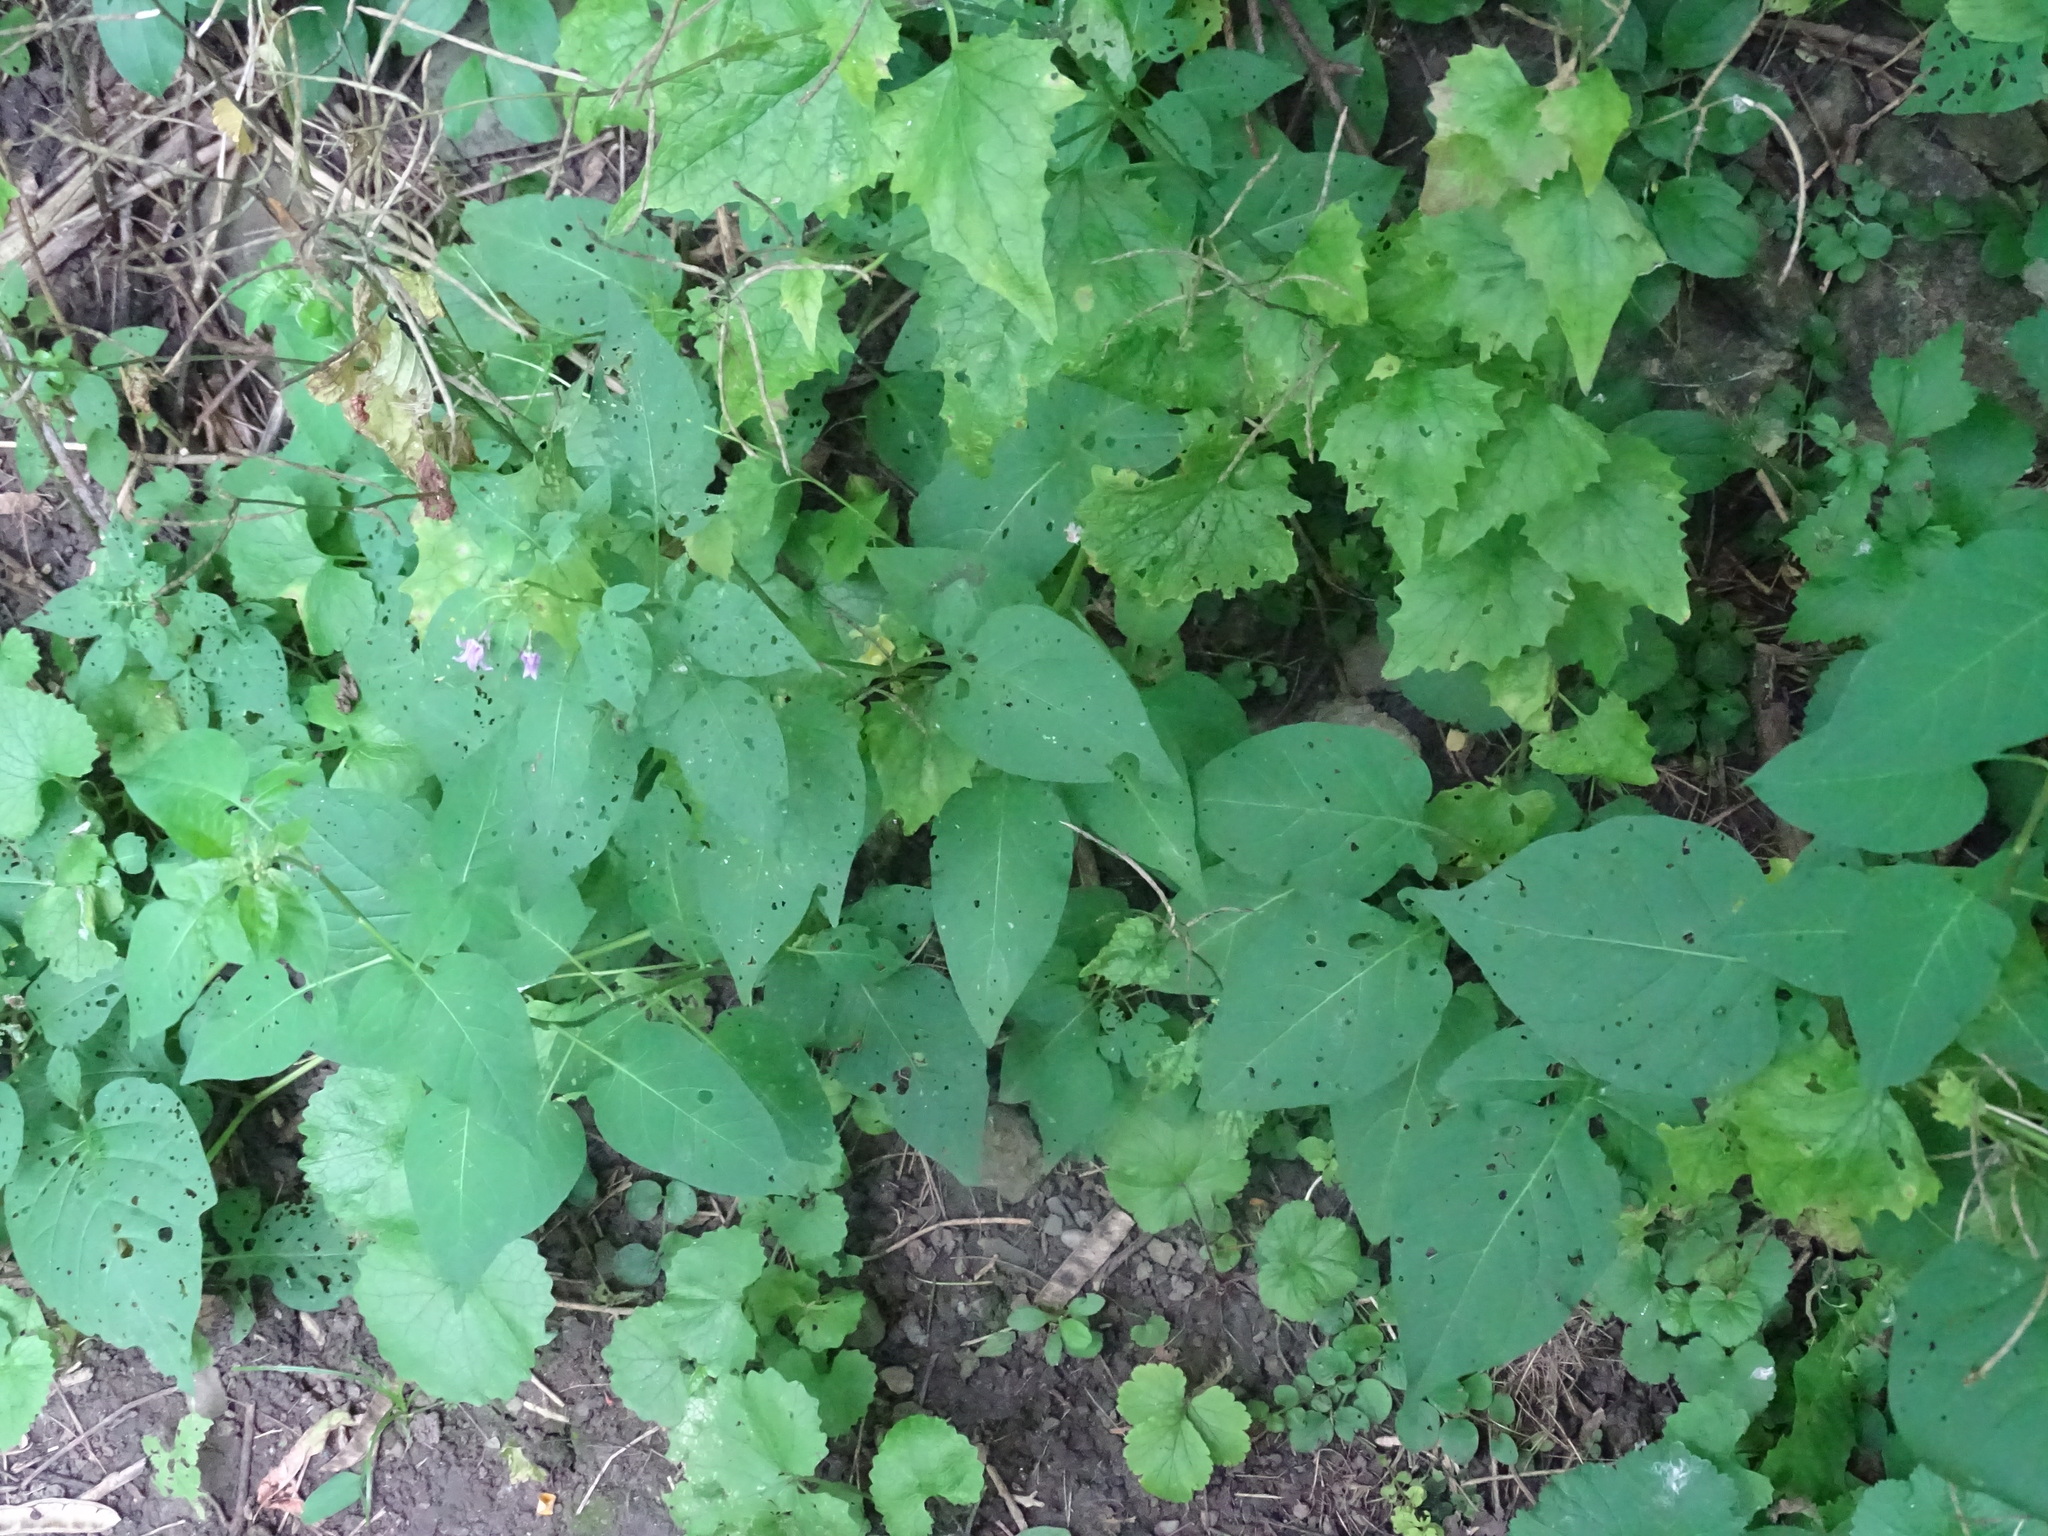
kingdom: Plantae
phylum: Tracheophyta
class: Magnoliopsida
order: Solanales
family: Solanaceae
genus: Solanum
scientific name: Solanum dulcamara
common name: Climbing nightshade
